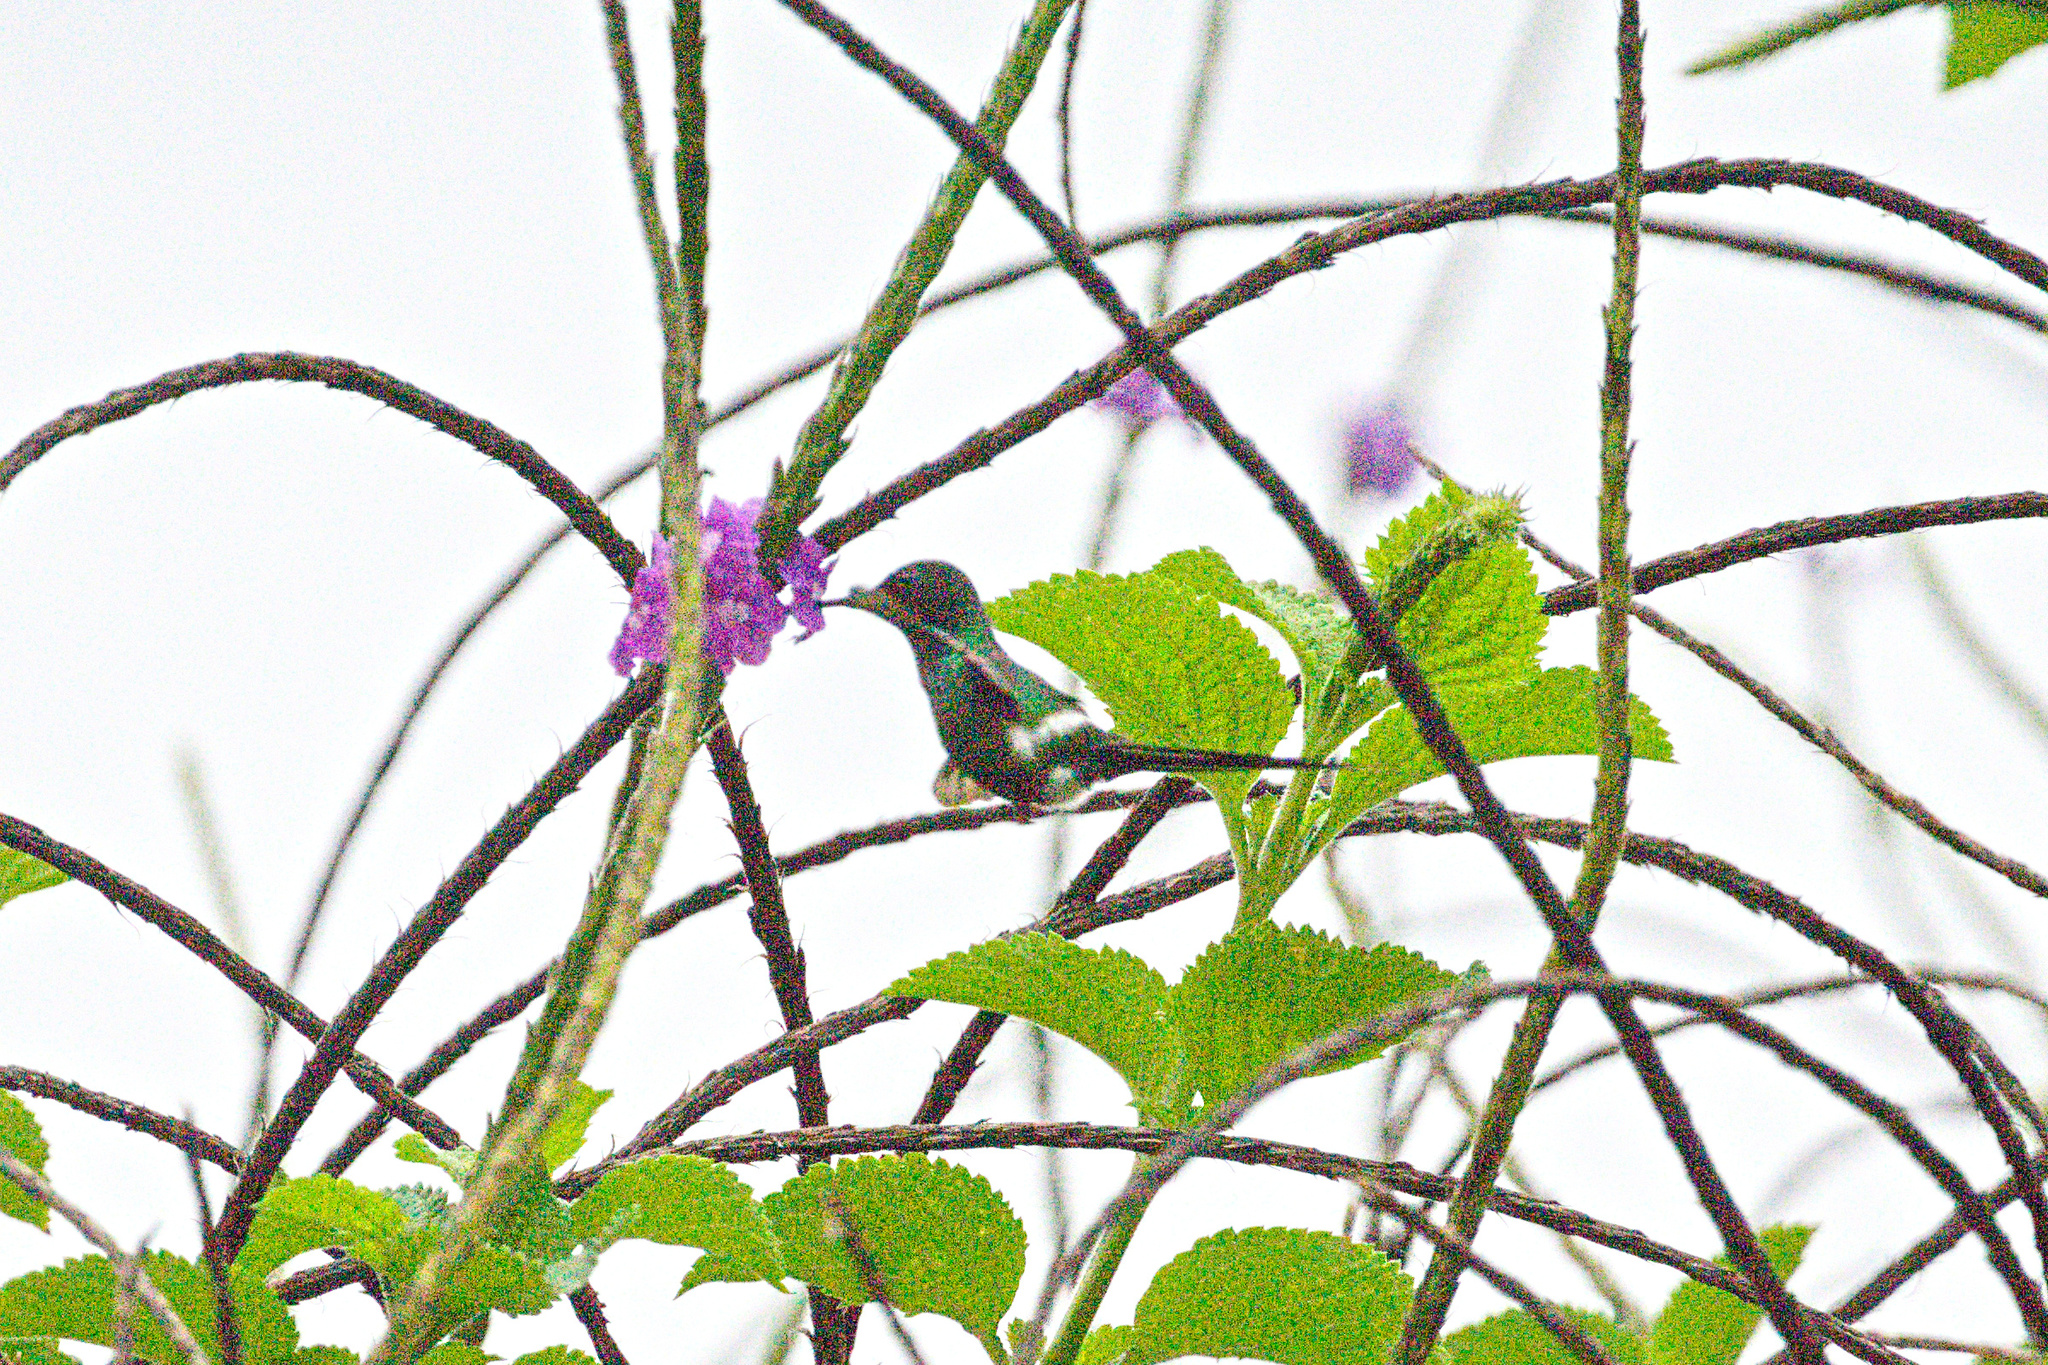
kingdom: Animalia
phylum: Chordata
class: Aves
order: Apodiformes
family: Trochilidae
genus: Discosura
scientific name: Discosura conversii
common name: Green thorntail
